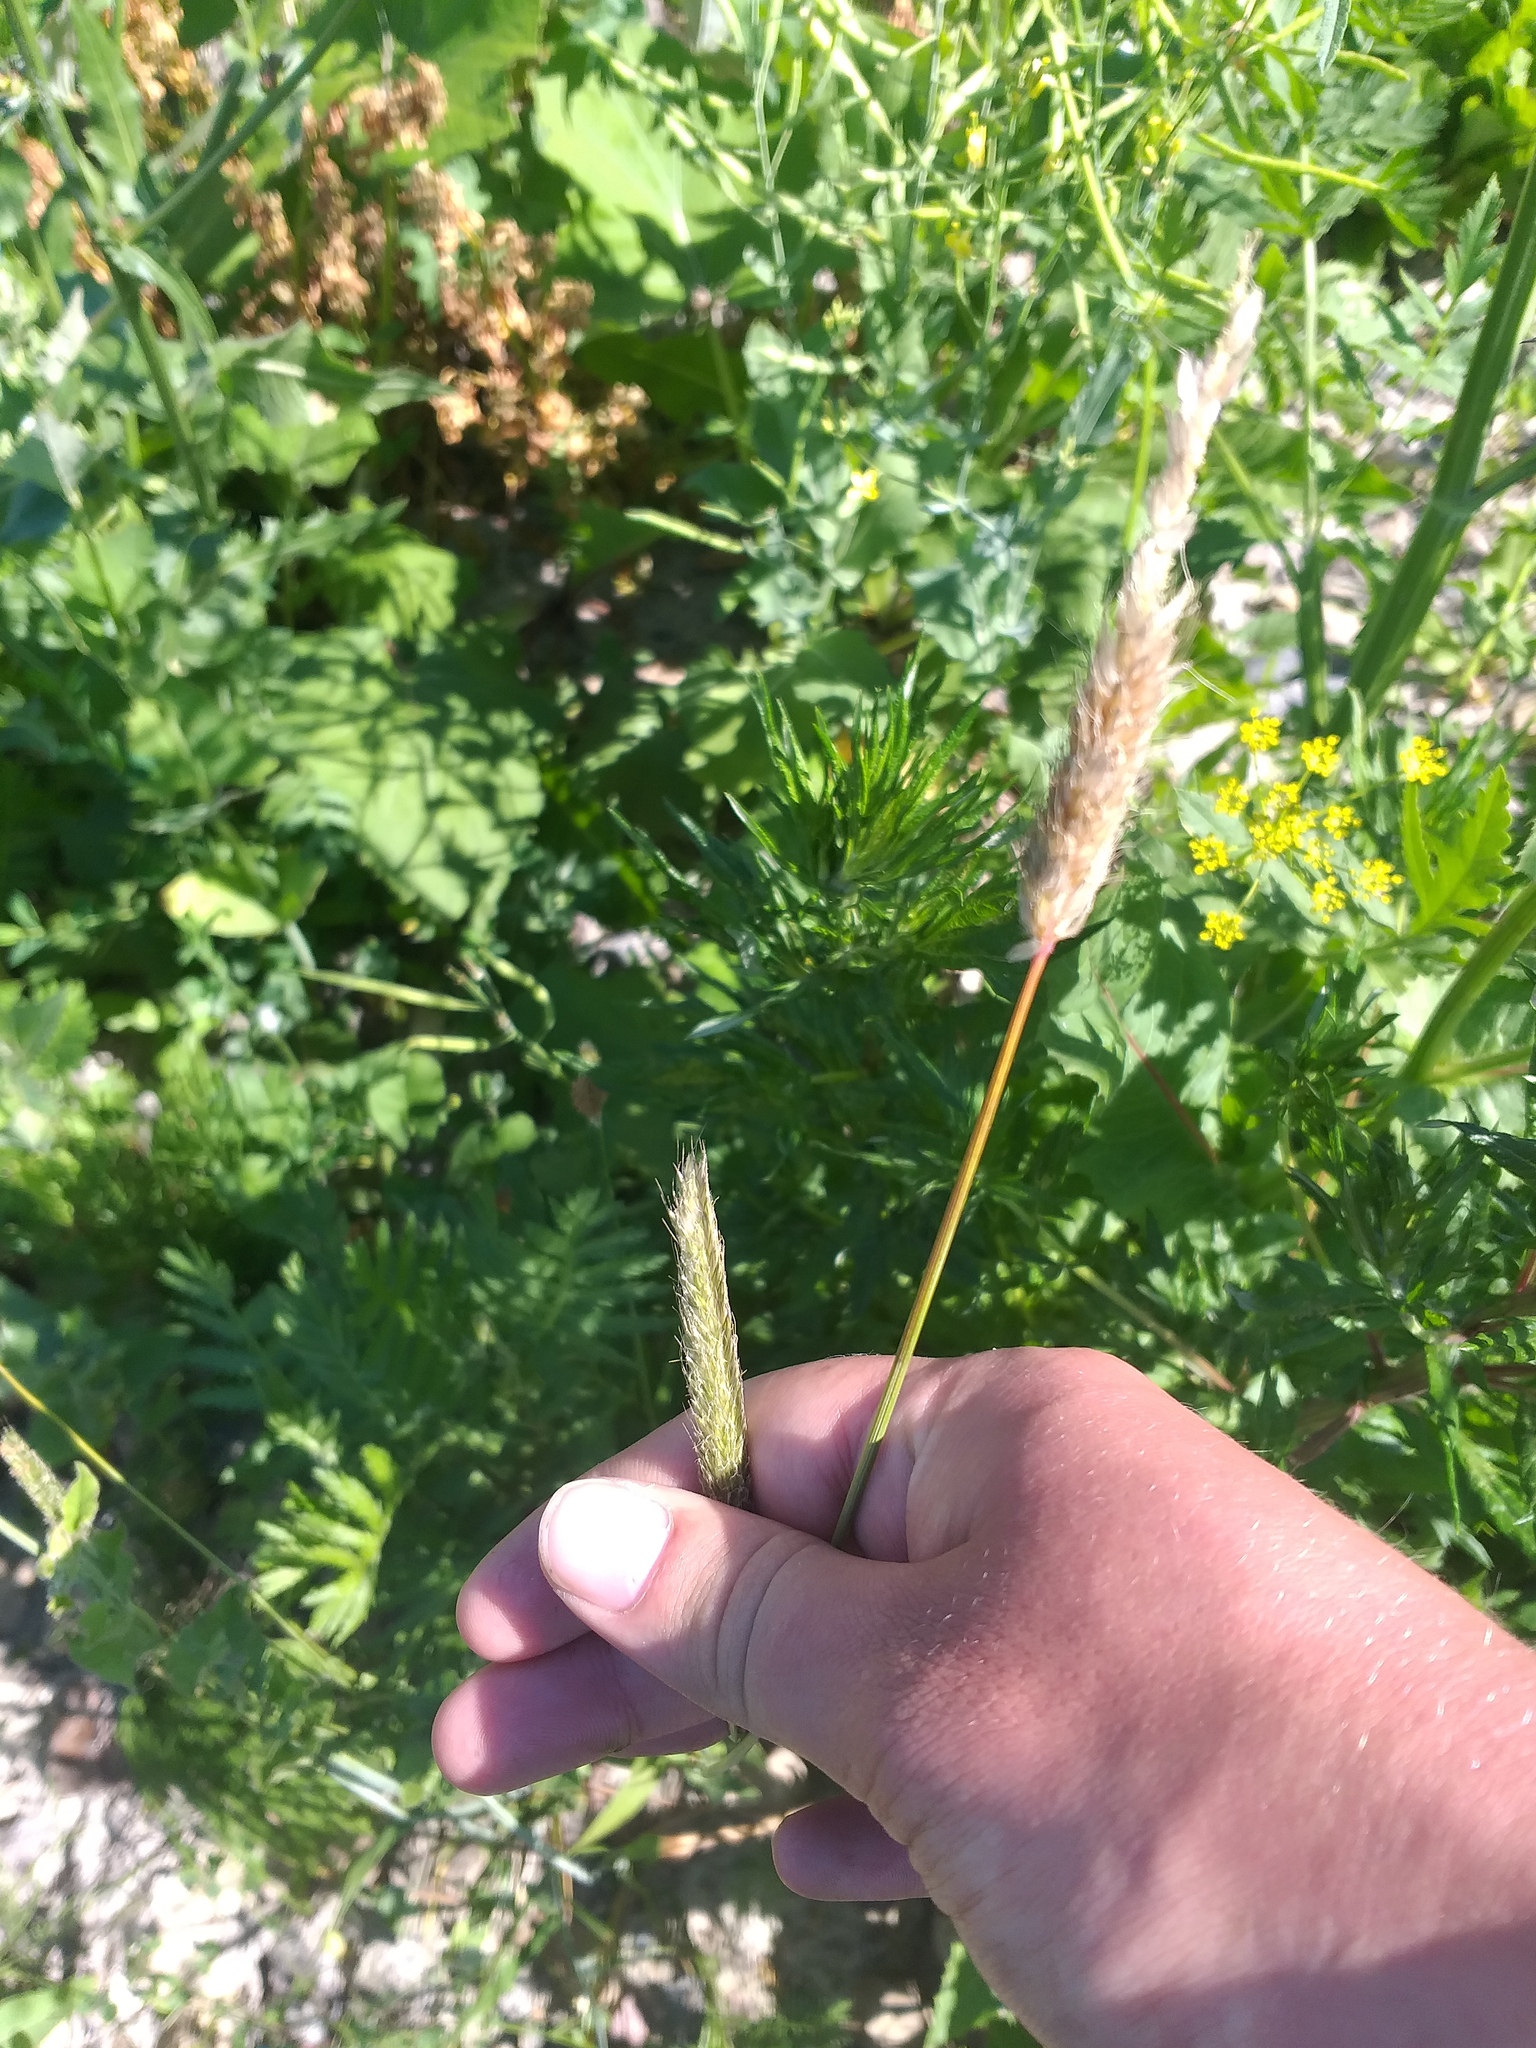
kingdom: Plantae
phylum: Tracheophyta
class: Liliopsida
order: Poales
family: Poaceae
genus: Alopecurus
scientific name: Alopecurus pratensis
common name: Meadow foxtail
